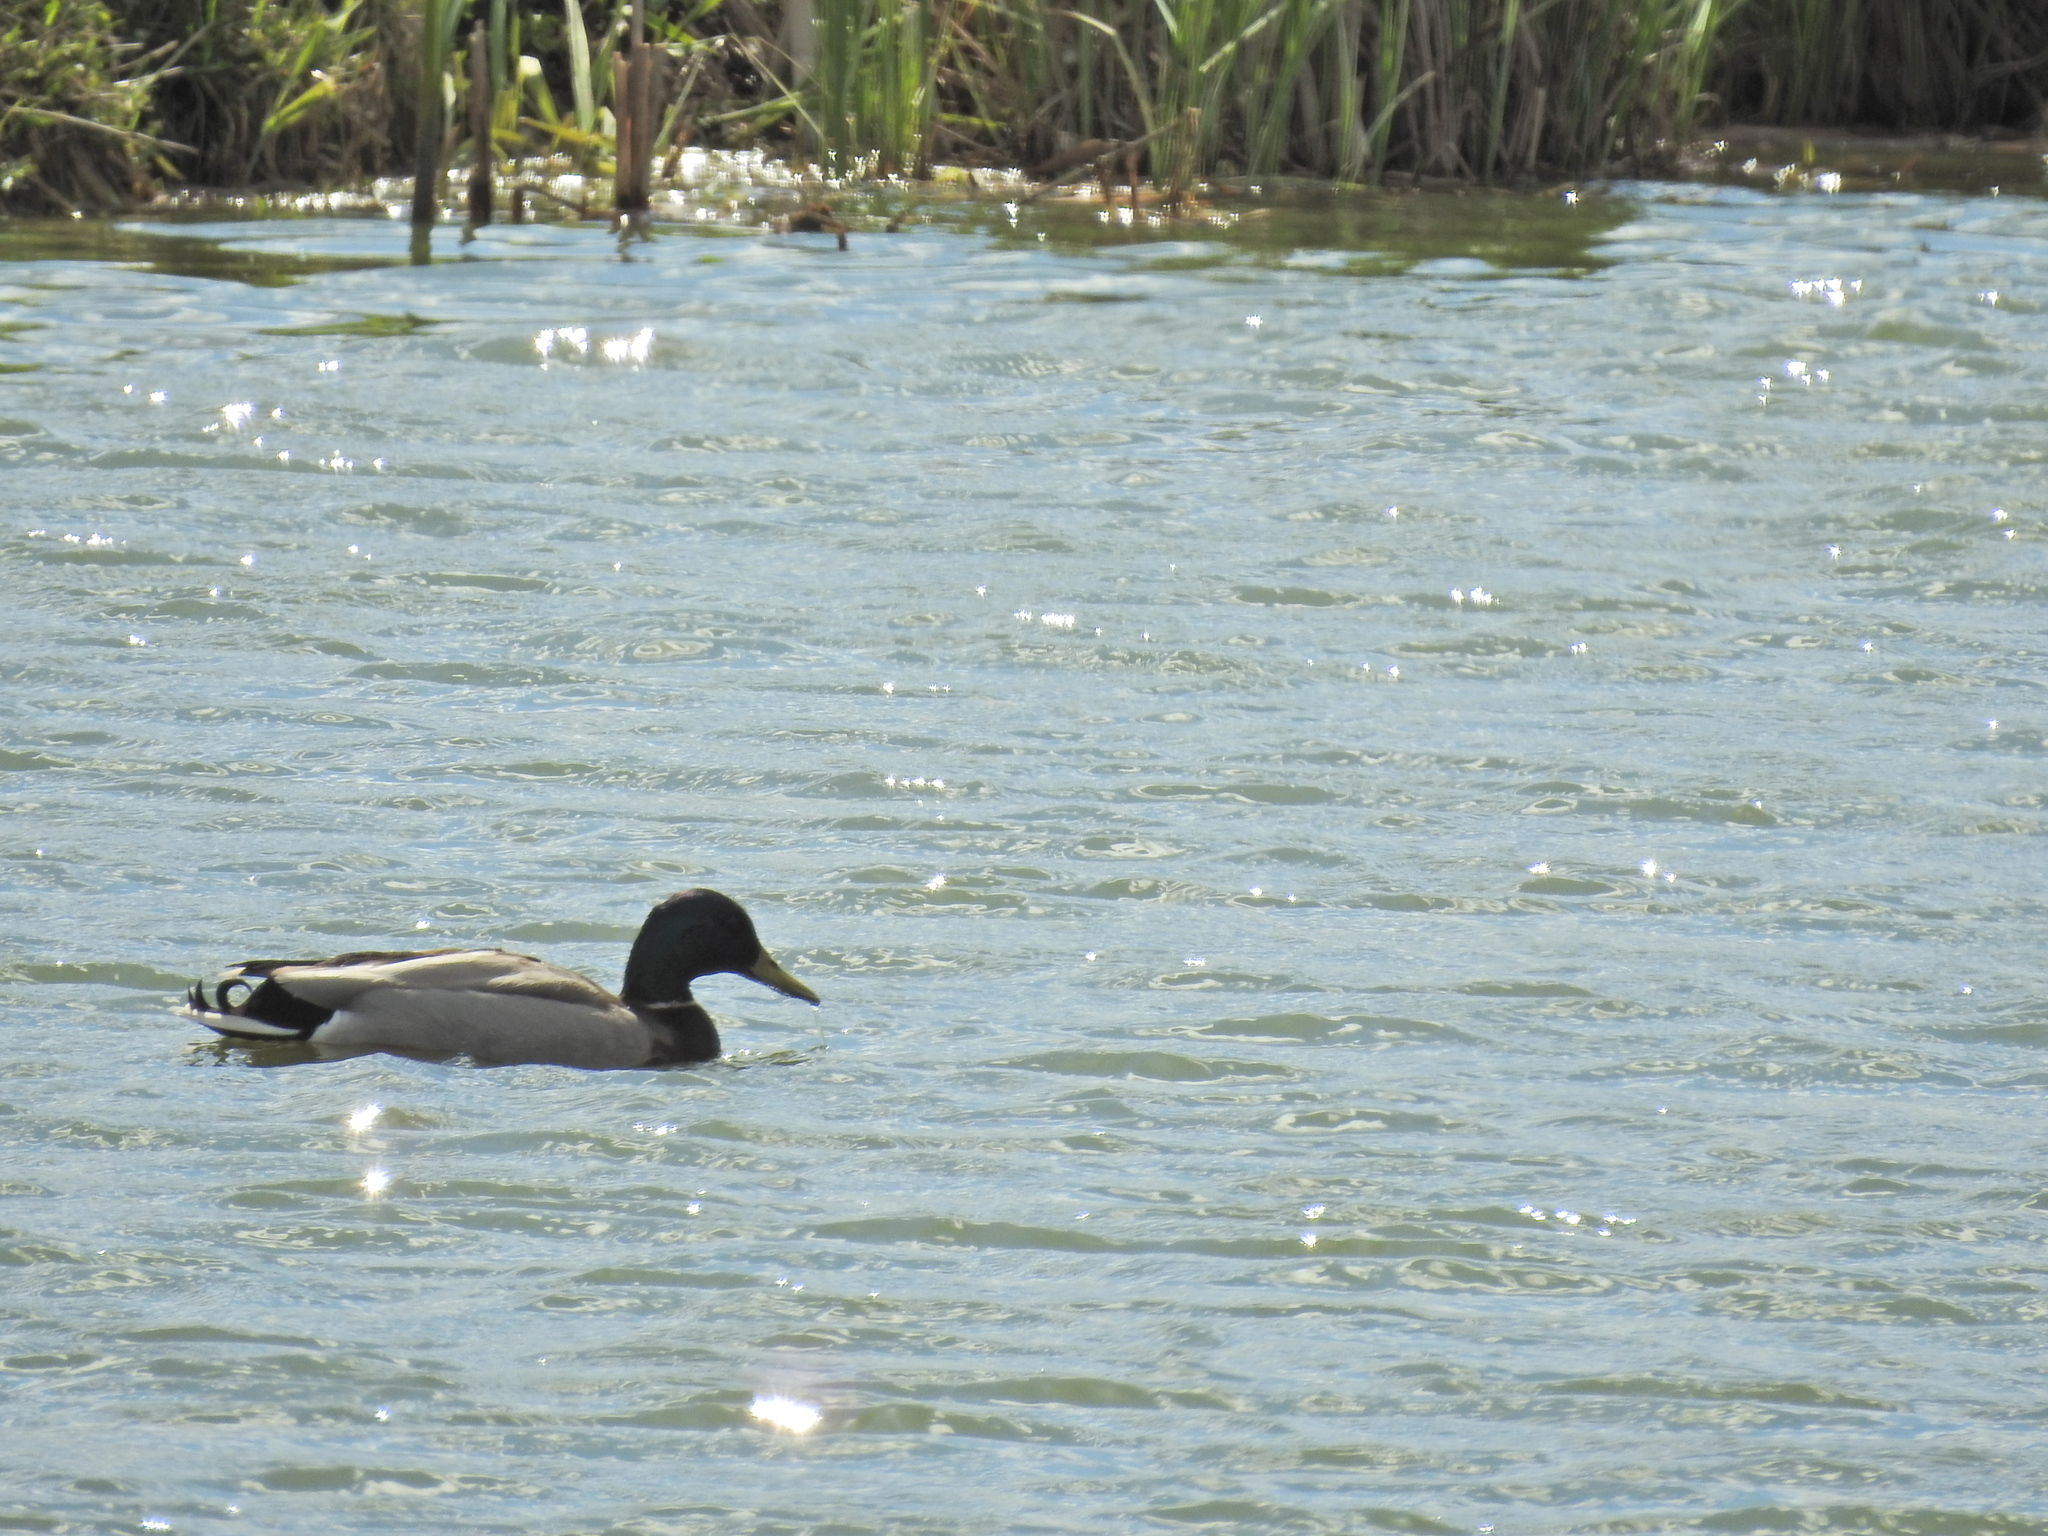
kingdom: Animalia
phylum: Chordata
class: Aves
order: Anseriformes
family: Anatidae
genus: Anas
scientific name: Anas platyrhynchos
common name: Mallard
